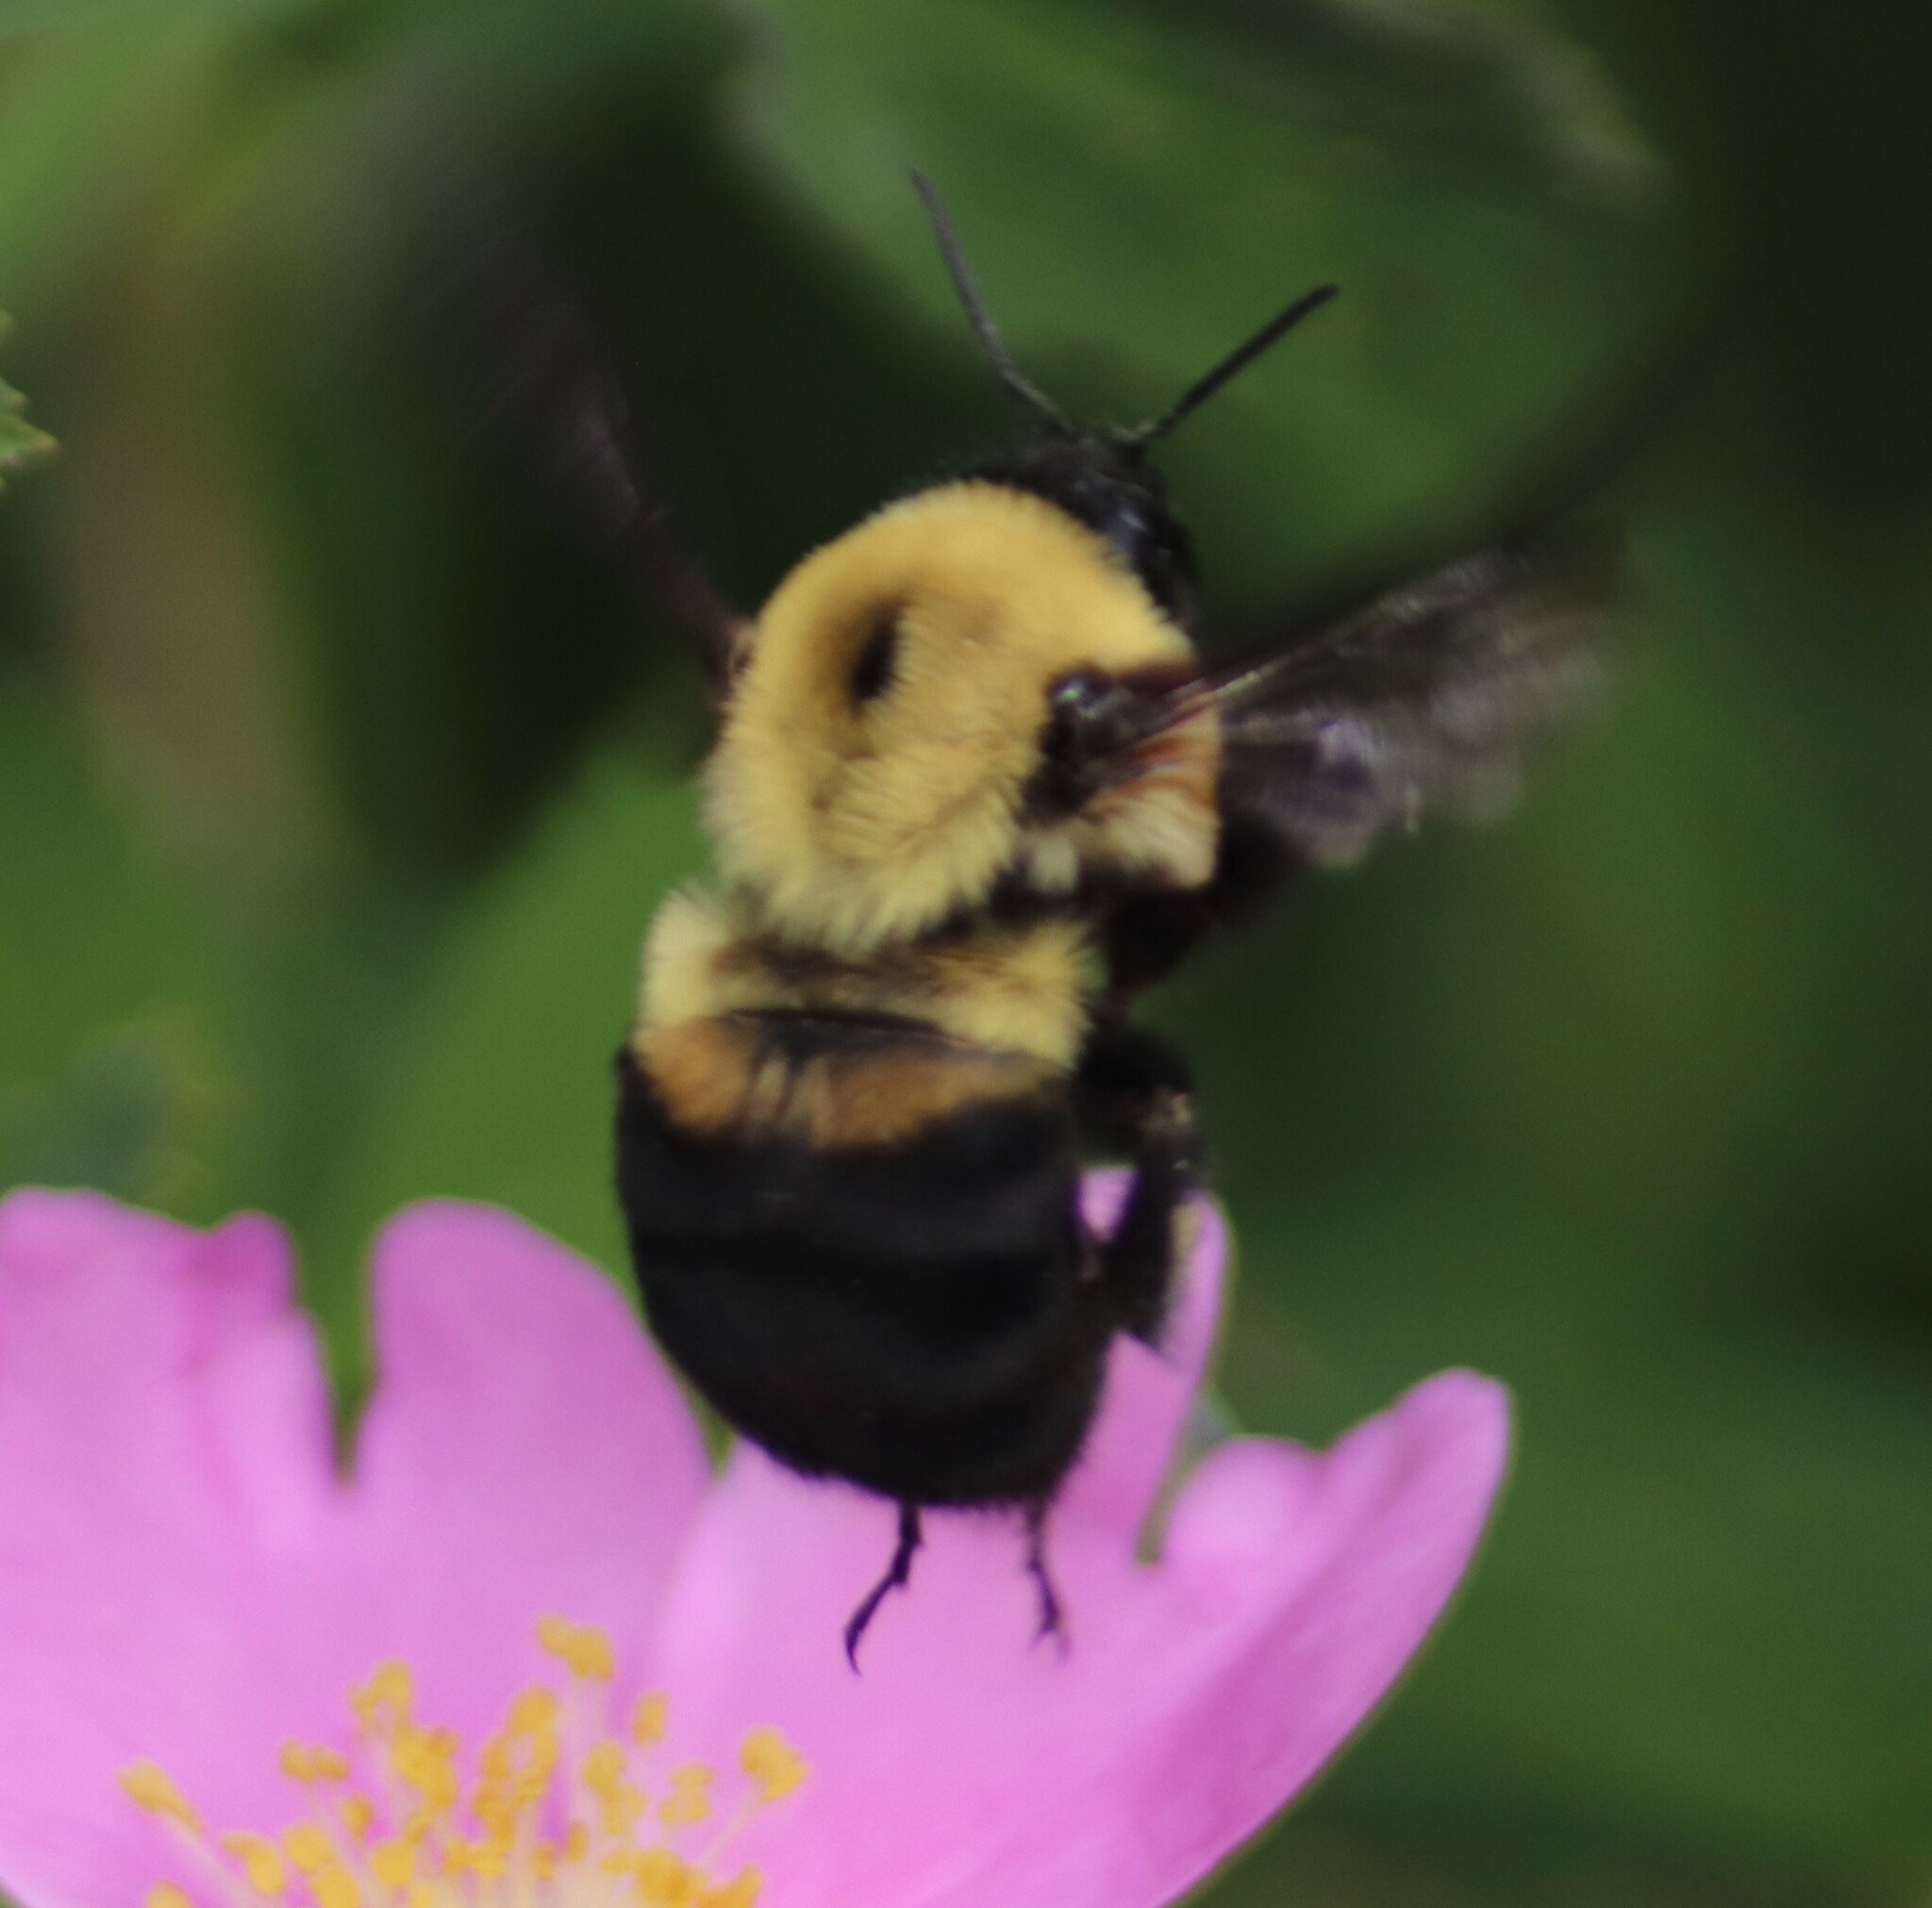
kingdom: Animalia
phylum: Arthropoda
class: Insecta
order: Hymenoptera
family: Apidae
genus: Bombus
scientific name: Bombus griseocollis
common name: Brown-belted bumble bee
